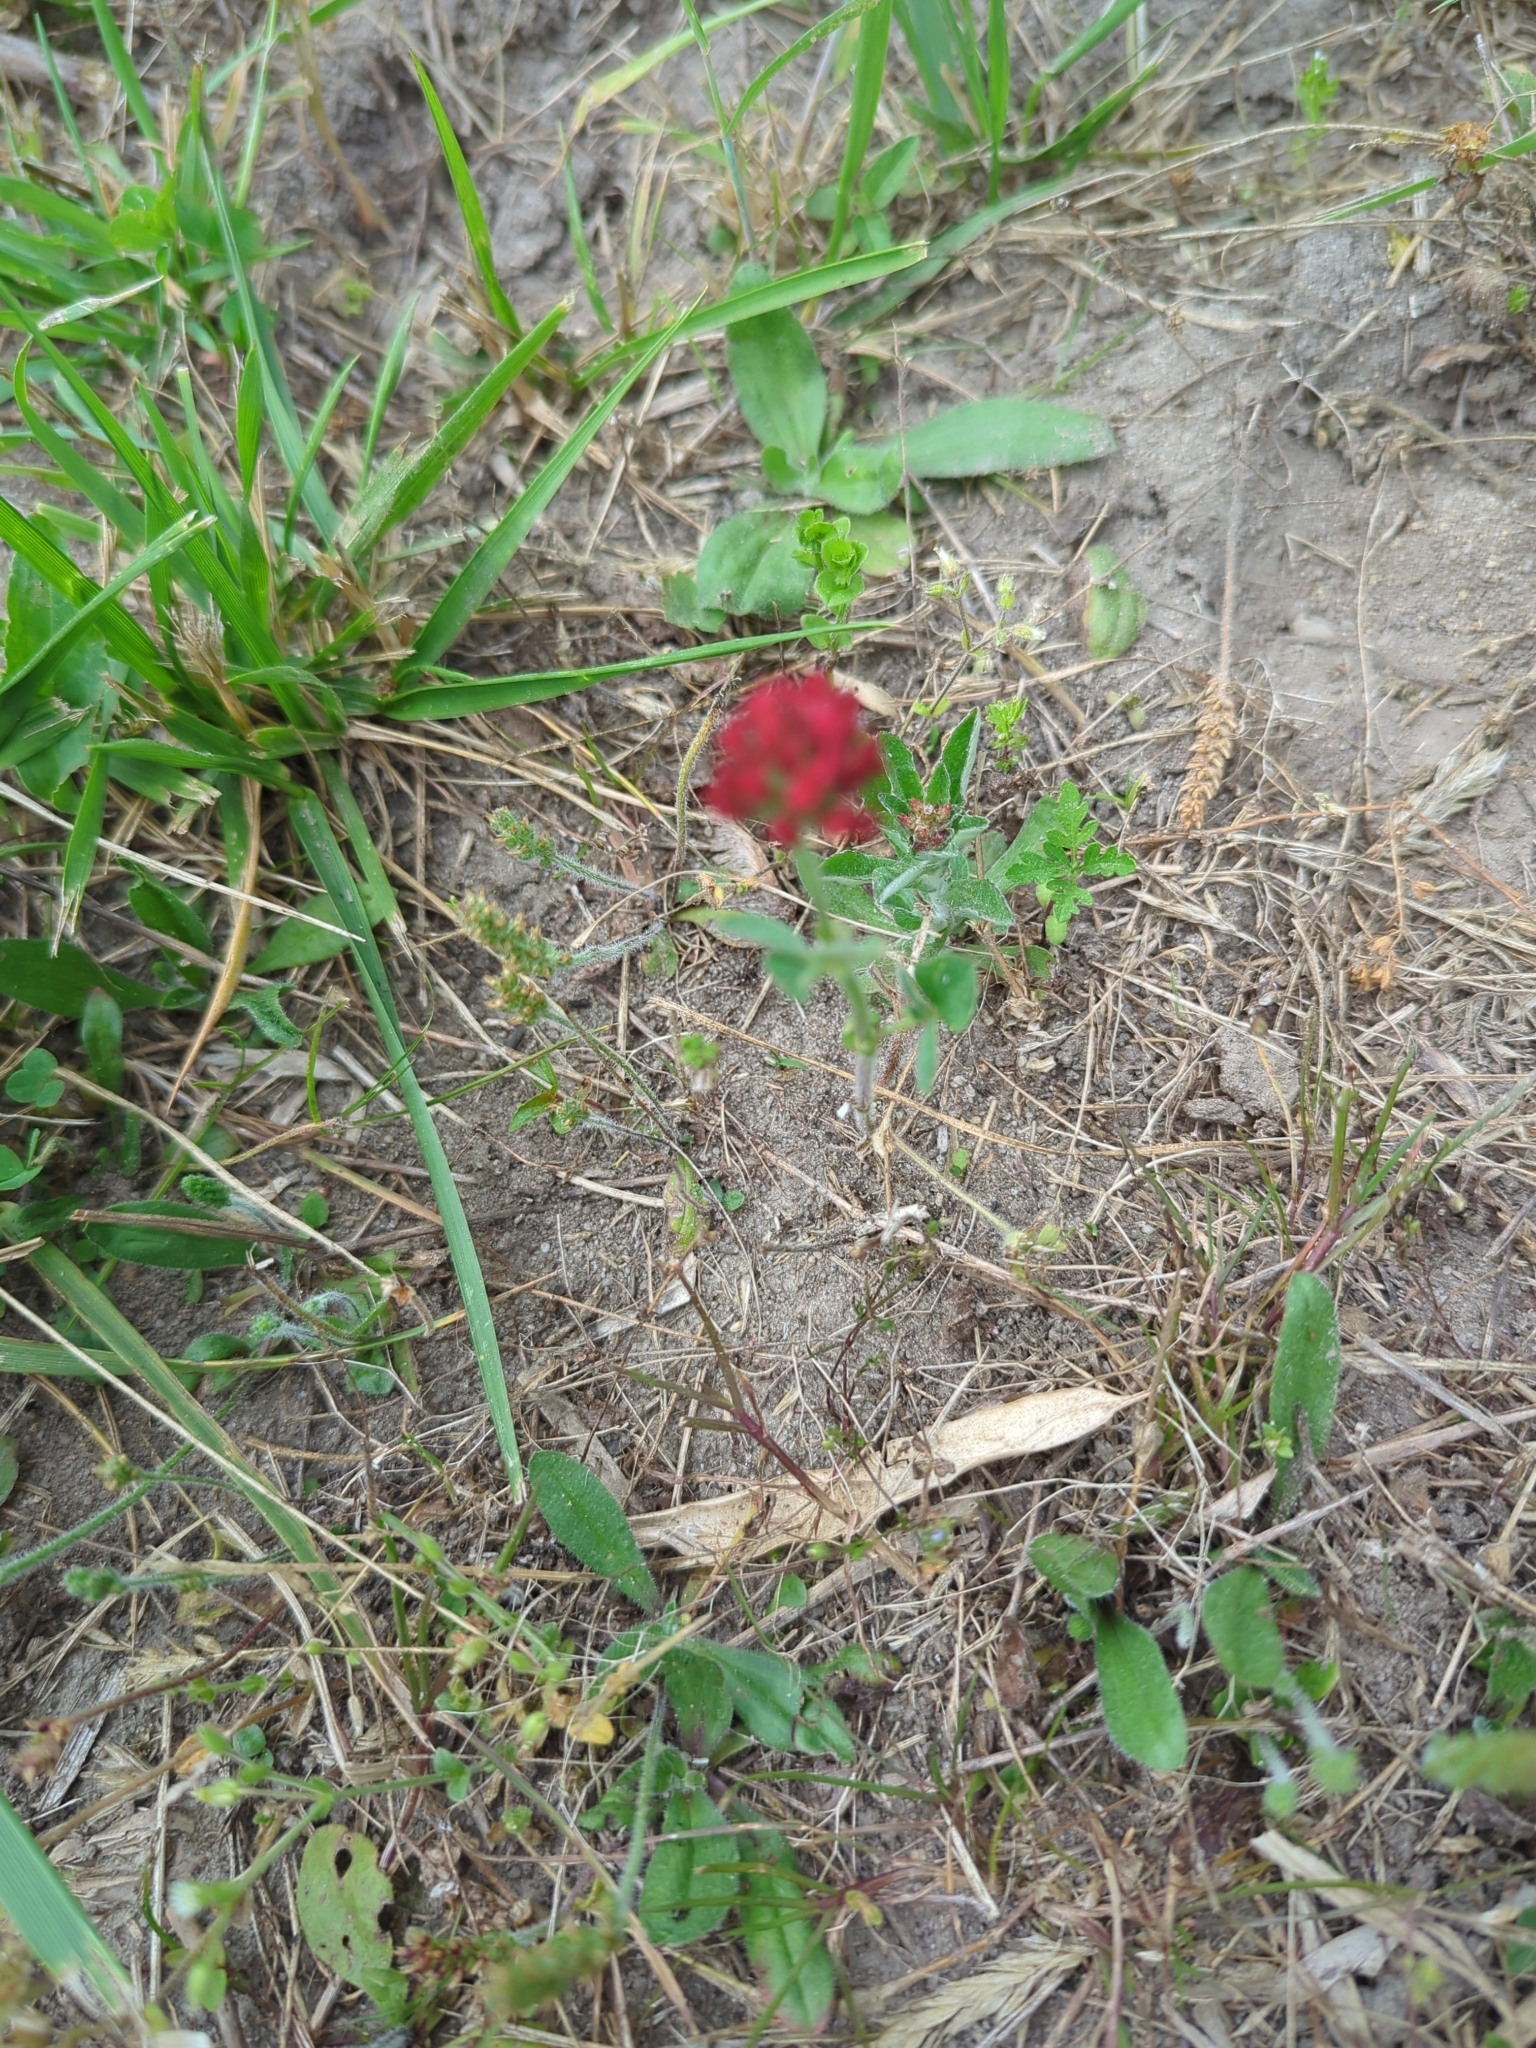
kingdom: Plantae
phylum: Tracheophyta
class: Magnoliopsida
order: Fabales
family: Fabaceae
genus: Trifolium
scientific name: Trifolium incarnatum
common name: Crimson clover
